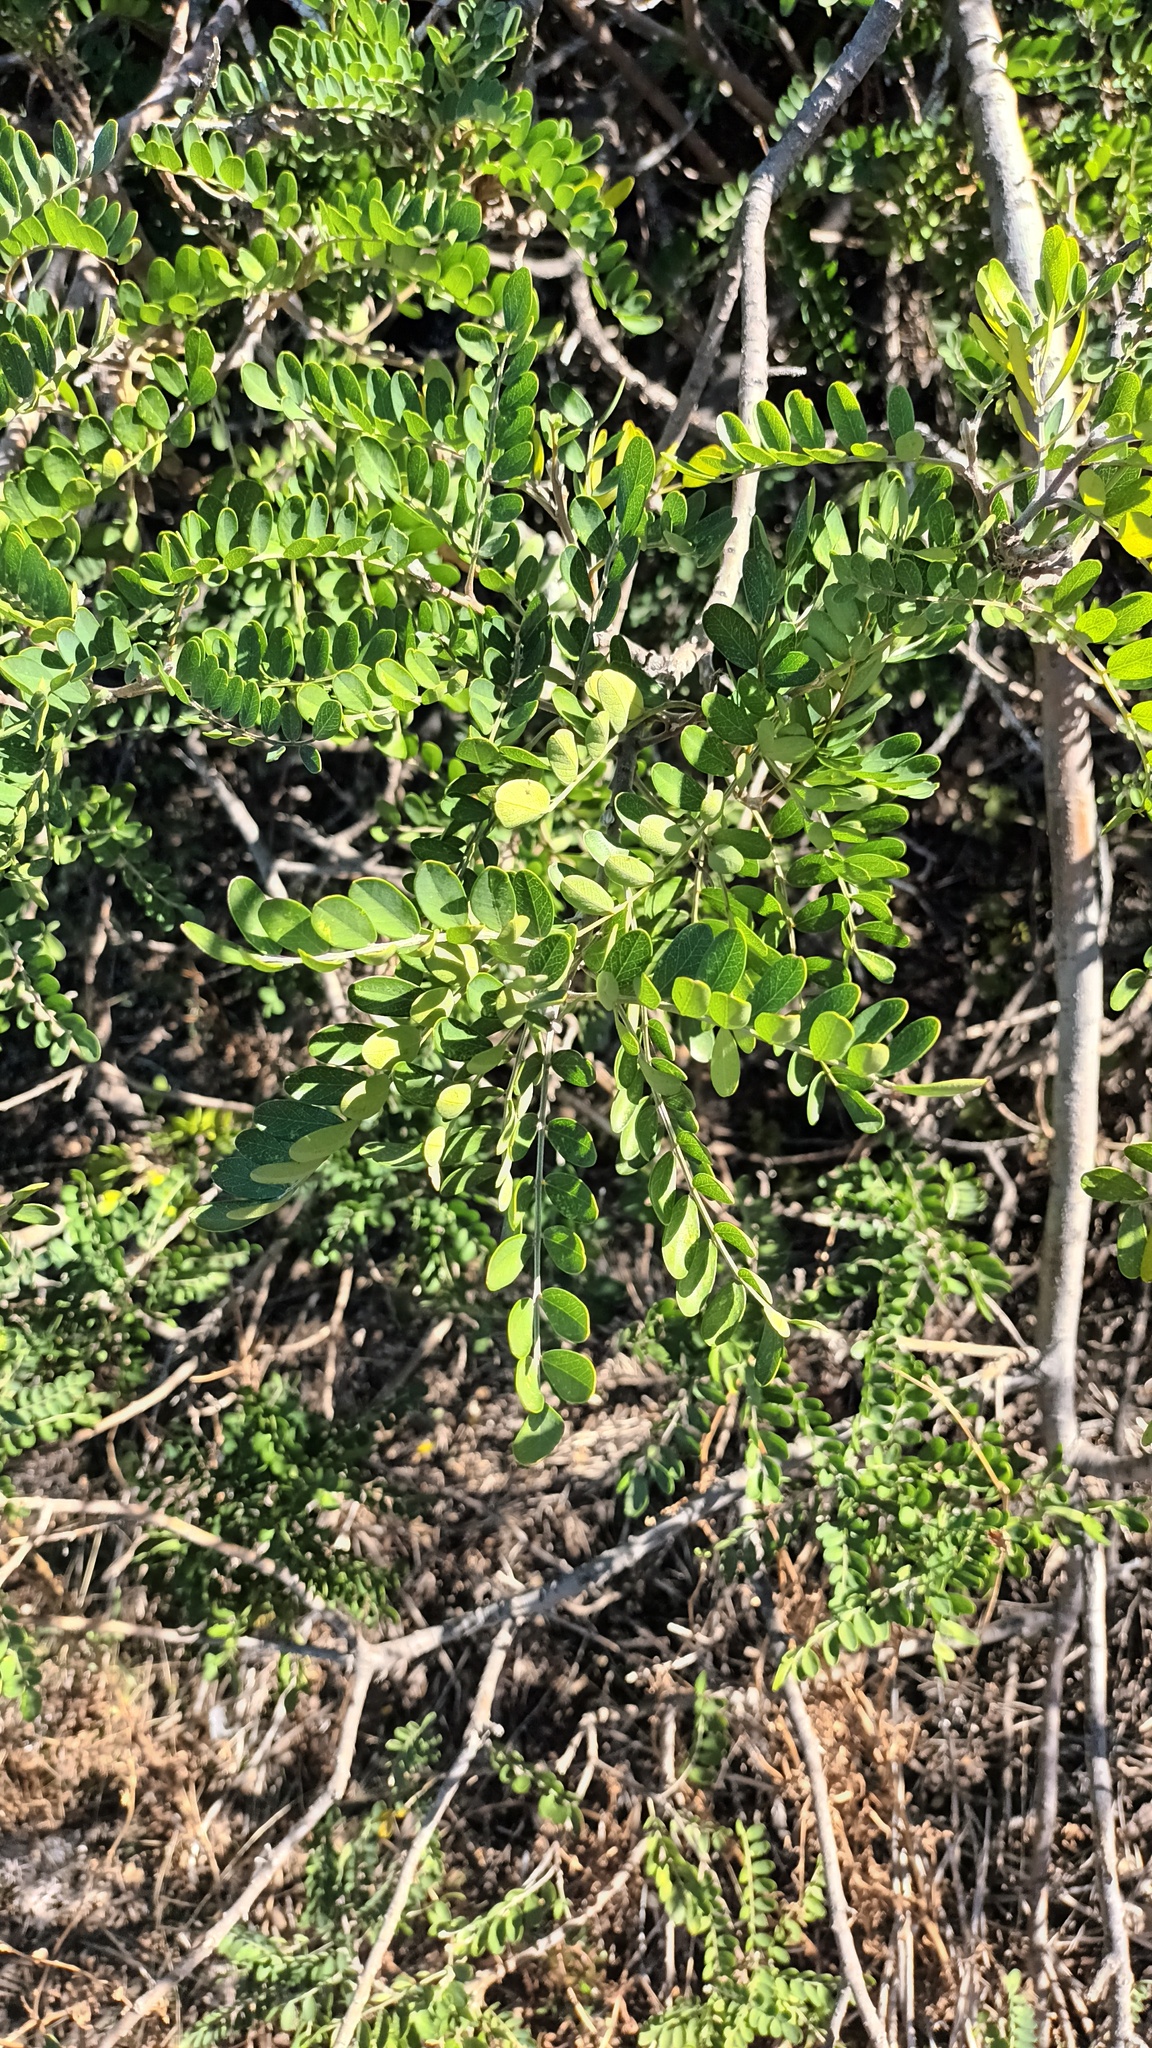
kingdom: Plantae
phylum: Tracheophyta
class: Magnoliopsida
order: Fabales
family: Fabaceae
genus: Sophora
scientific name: Sophora chrysophylla
